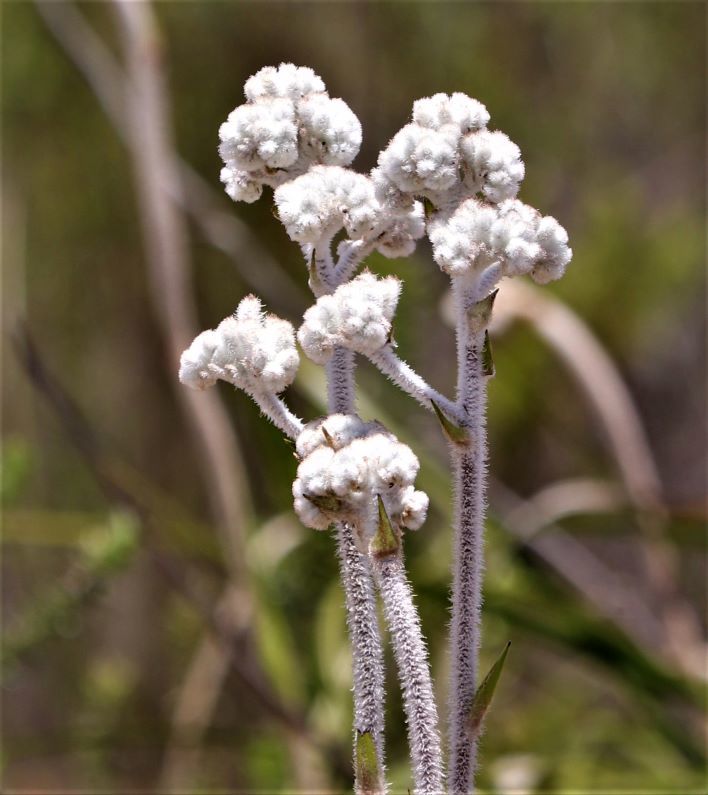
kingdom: Plantae
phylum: Tracheophyta
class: Liliopsida
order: Asparagales
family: Lanariaceae
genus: Lanaria
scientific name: Lanaria lanata
